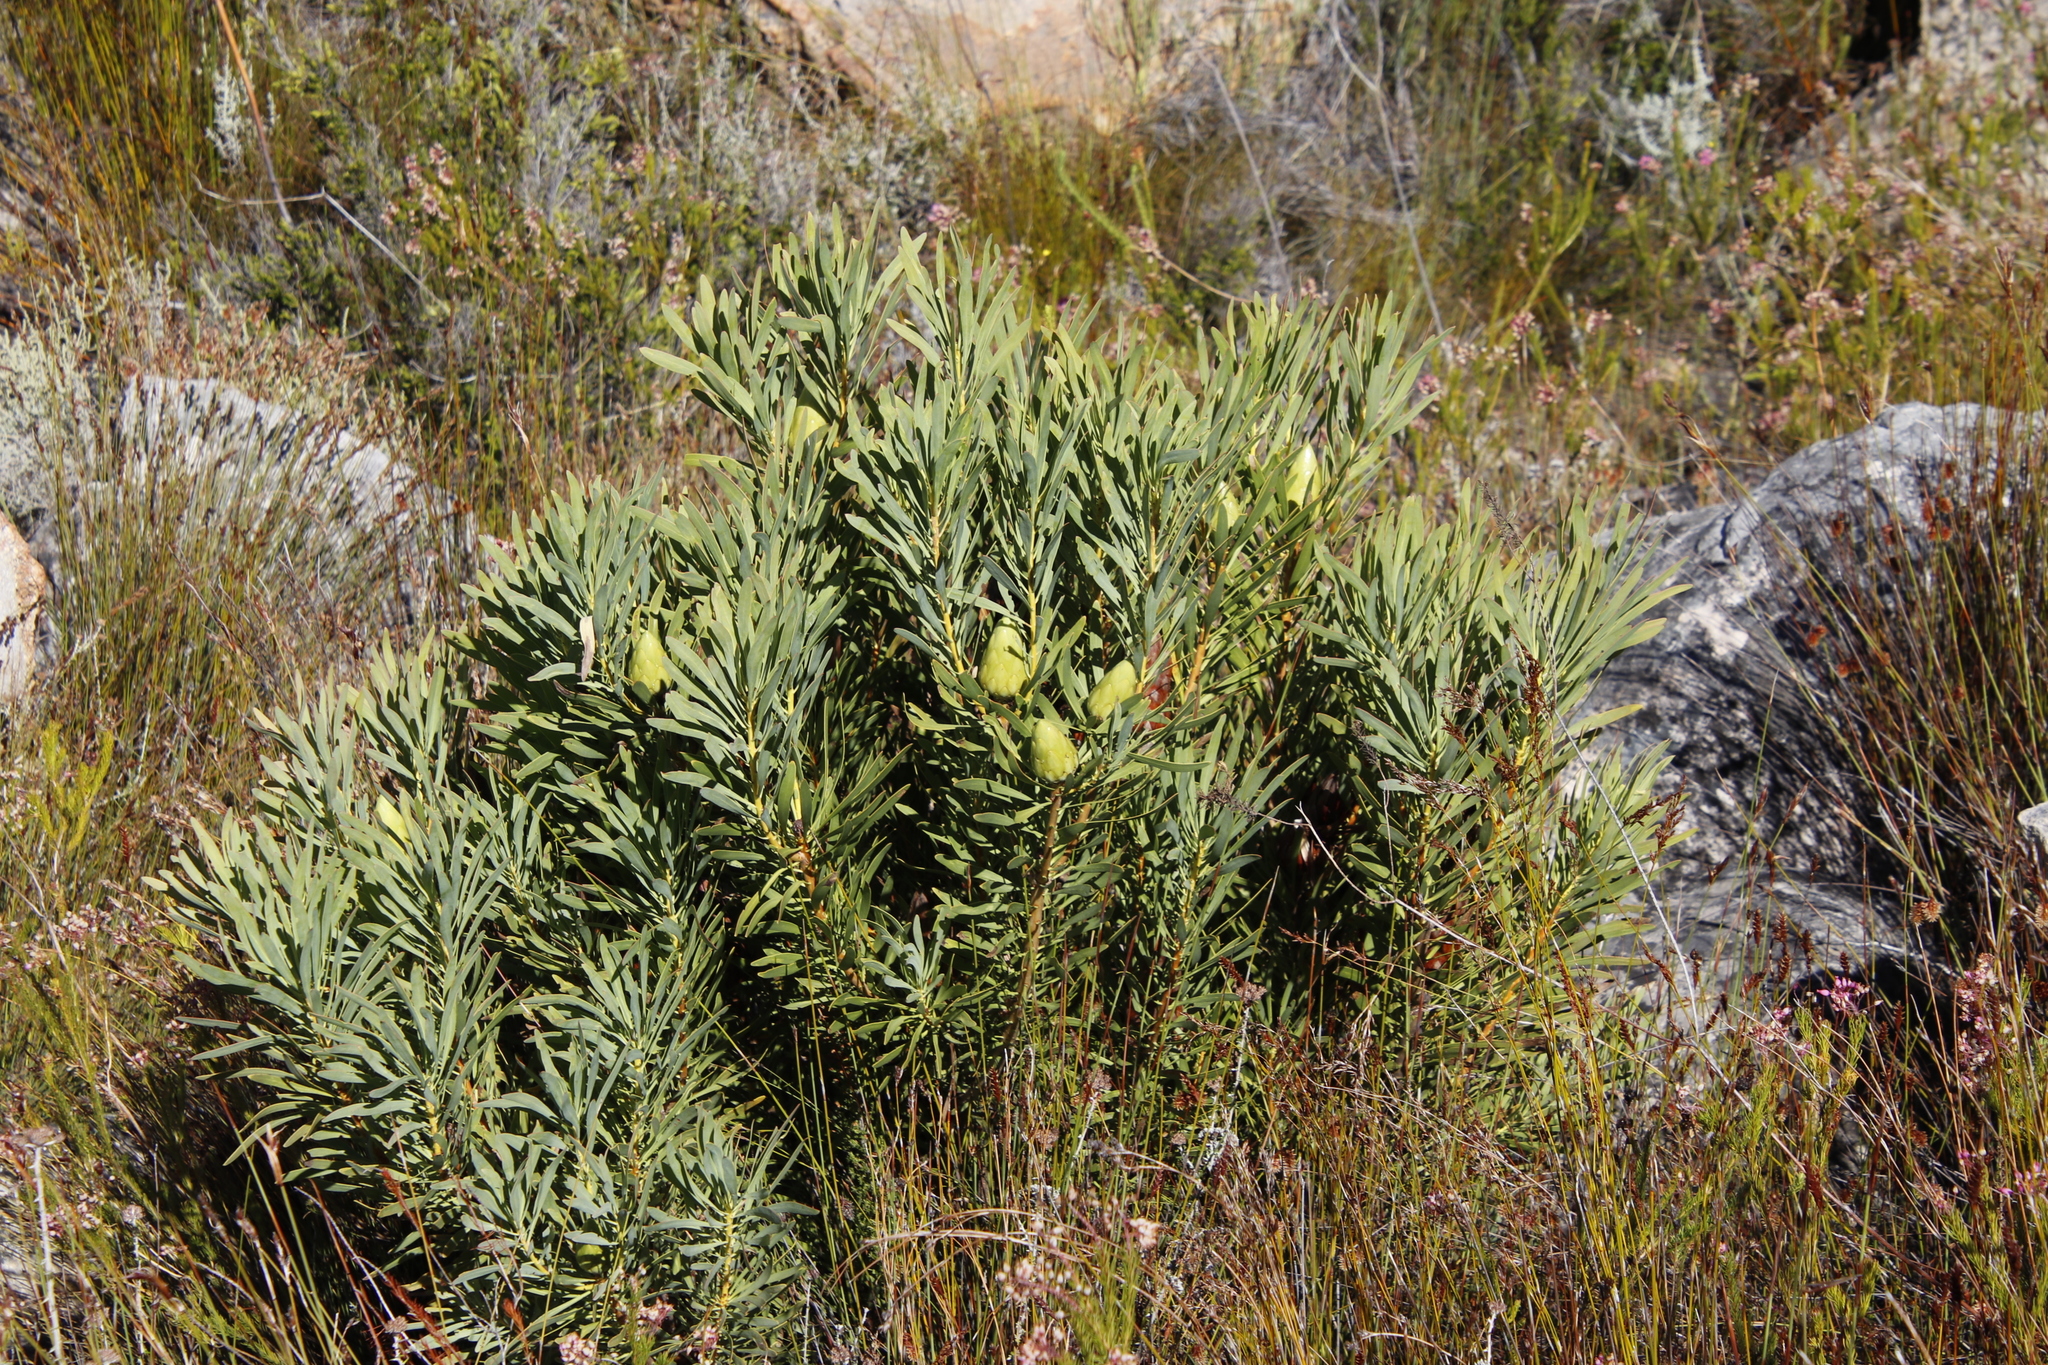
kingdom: Plantae
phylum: Tracheophyta
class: Magnoliopsida
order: Proteales
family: Proteaceae
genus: Protea
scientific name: Protea repens
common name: Sugarbush
